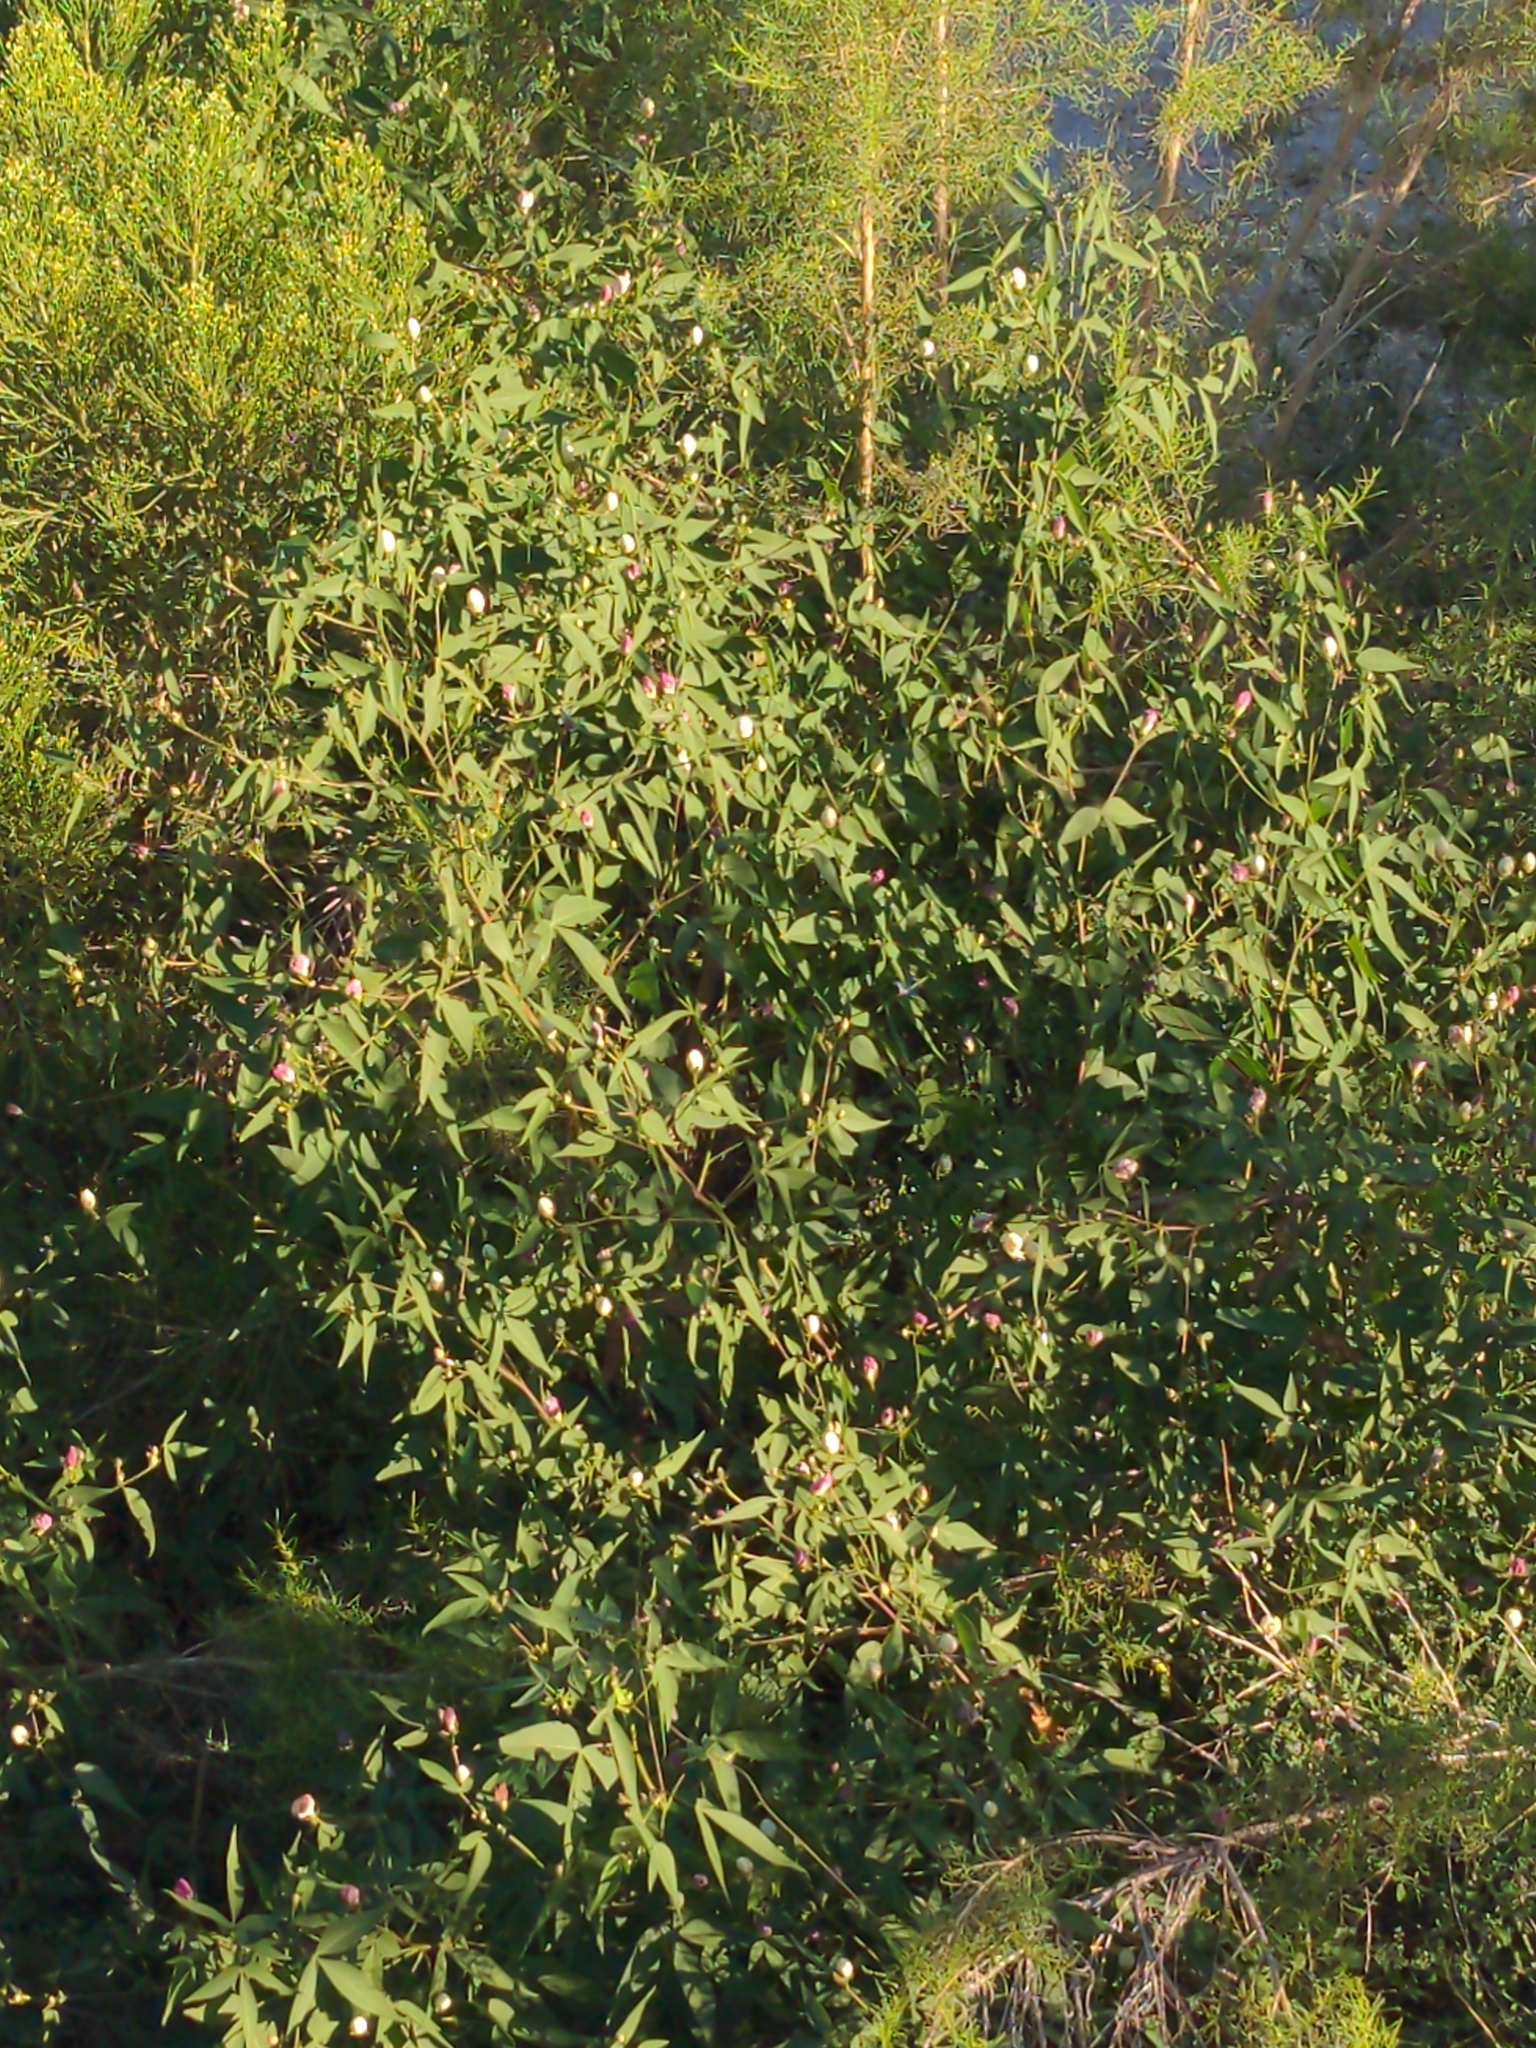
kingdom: Plantae
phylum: Tracheophyta
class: Magnoliopsida
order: Malvales
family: Malvaceae
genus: Gossypium
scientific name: Gossypium thurberi
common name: Desert cotton
